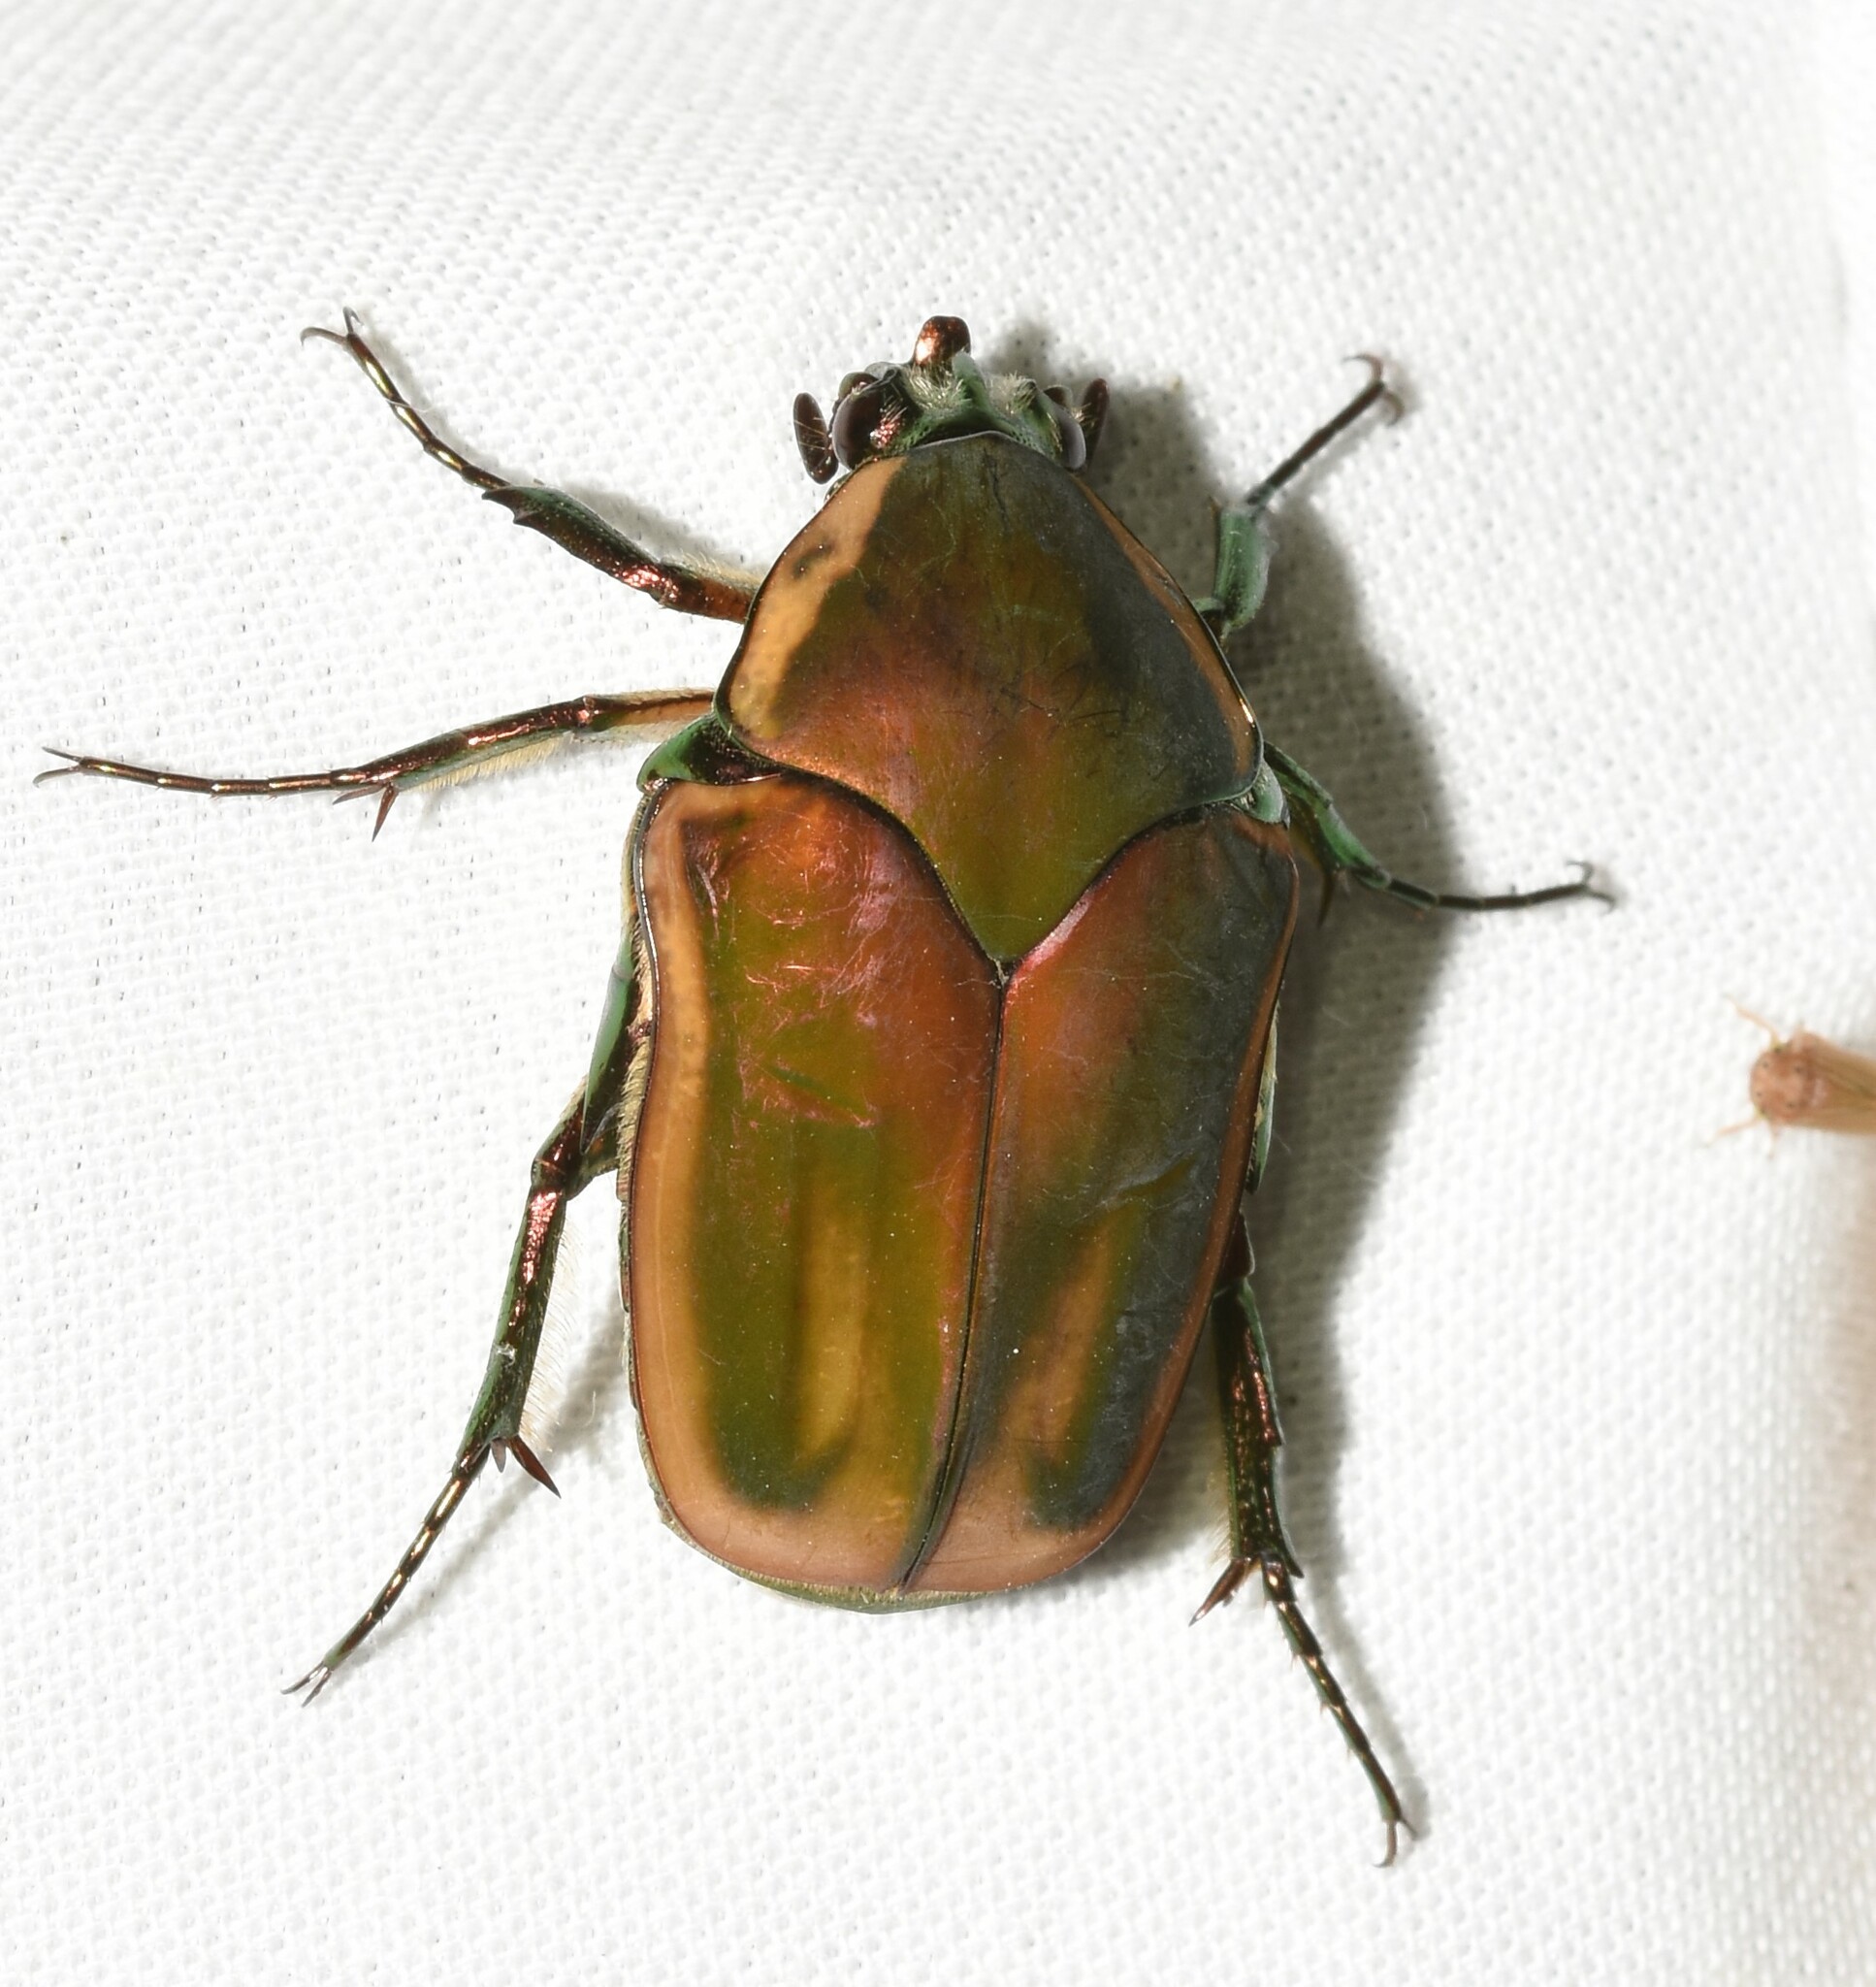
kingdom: Animalia
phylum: Arthropoda
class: Insecta
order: Coleoptera
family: Scarabaeidae
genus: Cotinis
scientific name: Cotinis nitida
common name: Common green june beetle
